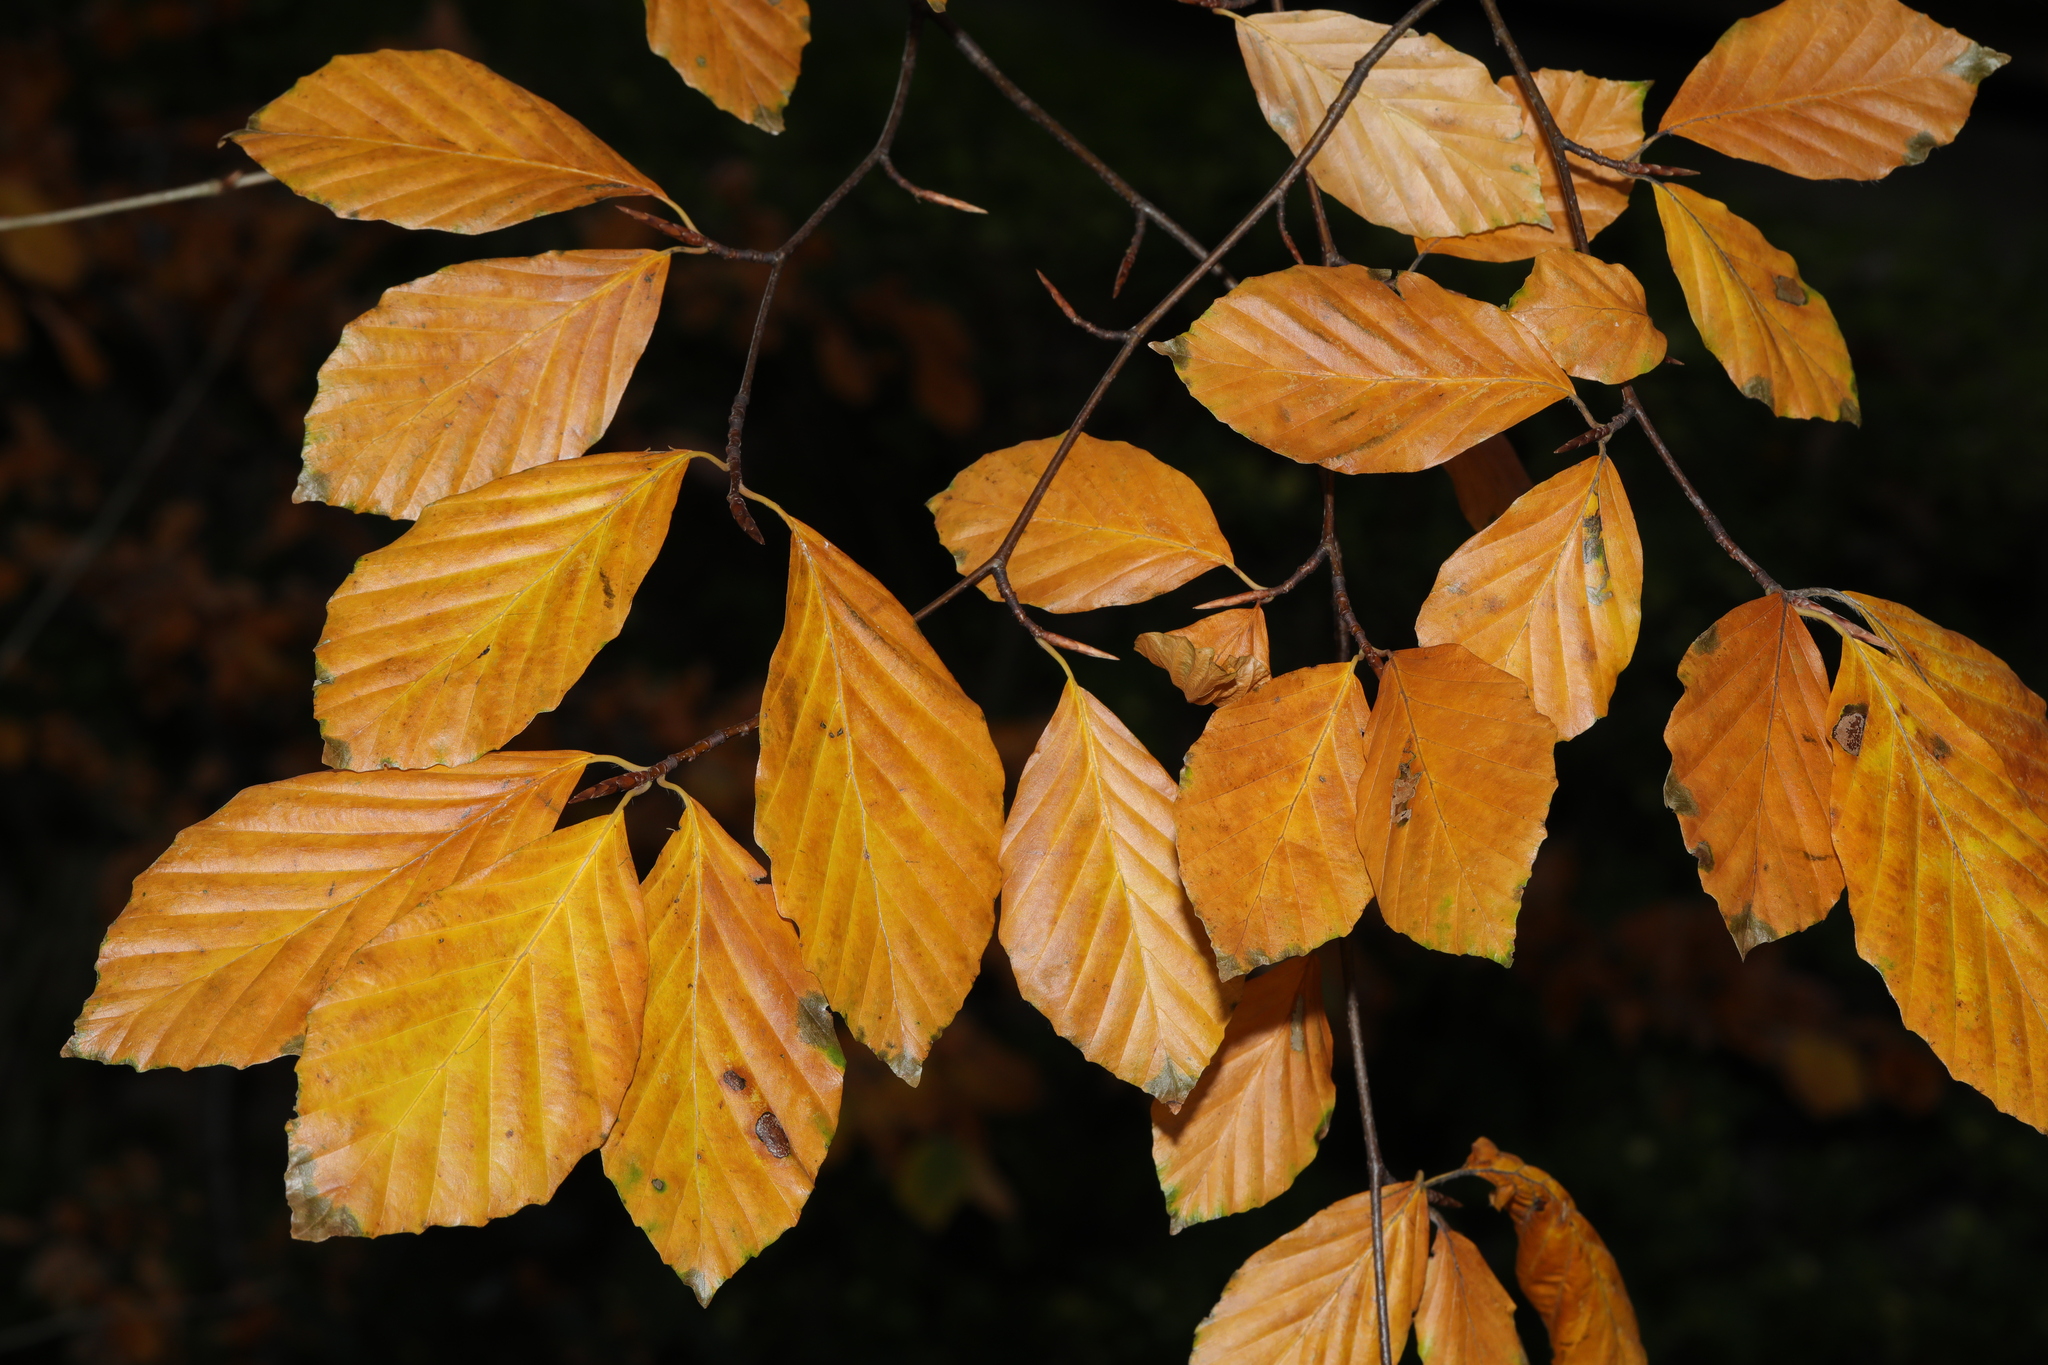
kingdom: Plantae
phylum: Tracheophyta
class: Magnoliopsida
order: Fagales
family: Fagaceae
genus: Fagus
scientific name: Fagus sylvatica
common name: Beech
